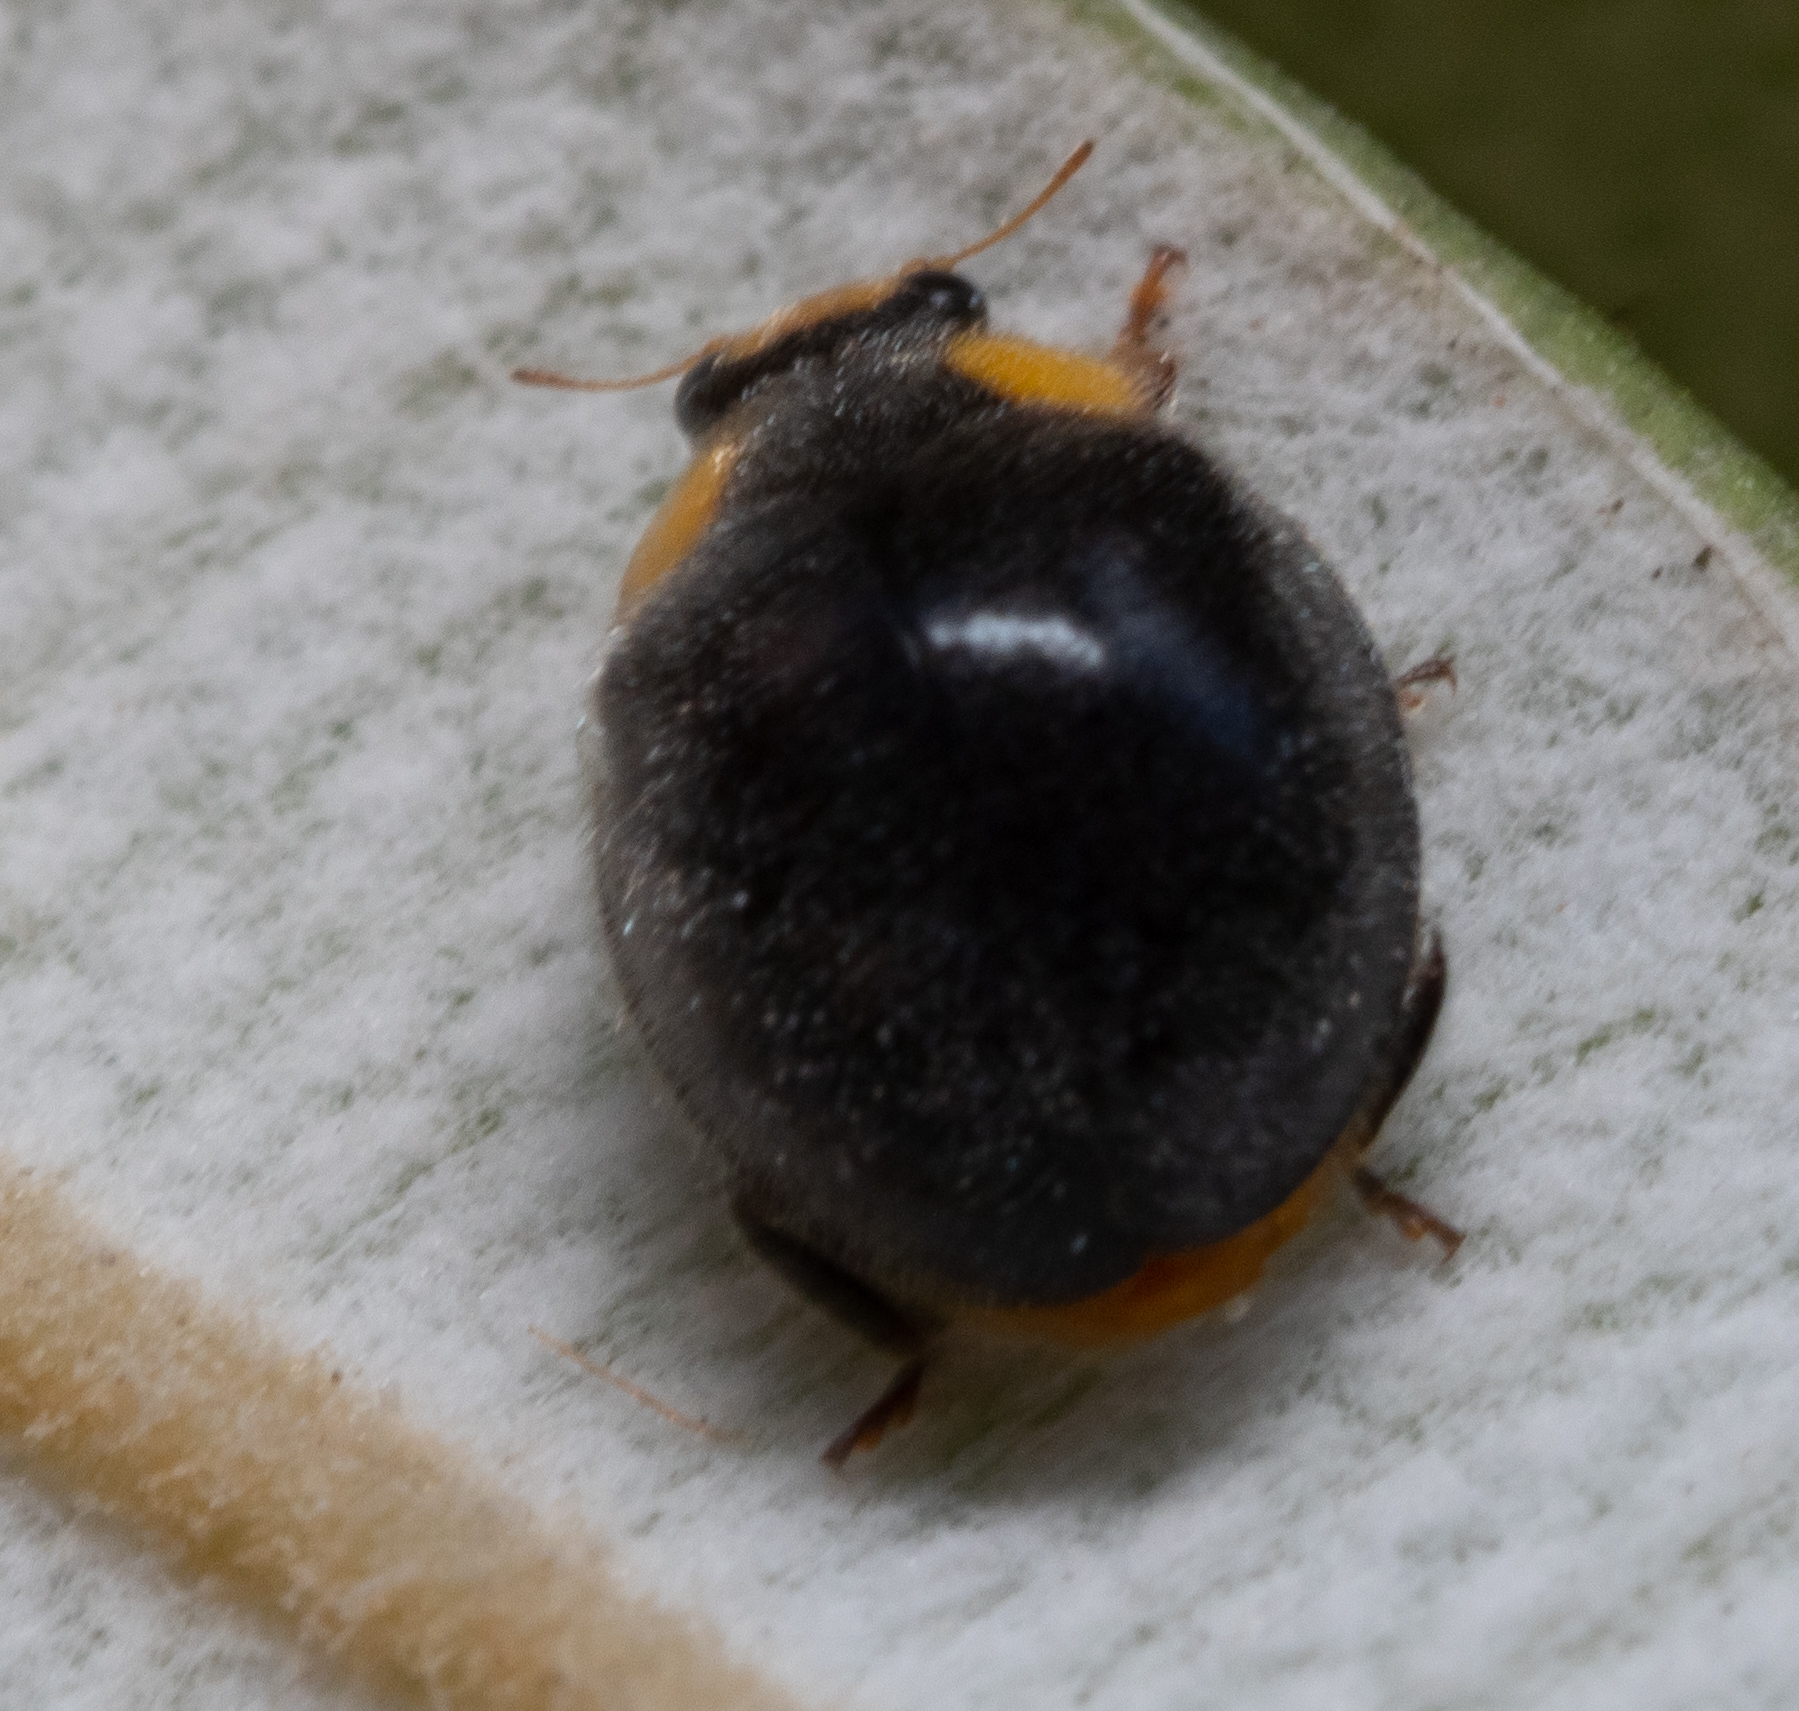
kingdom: Animalia
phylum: Arthropoda
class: Insecta
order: Coleoptera
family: Coccinellidae
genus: Scymnodes
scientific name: Scymnodes lividigaster
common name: Yellowshouldered lady beetle
